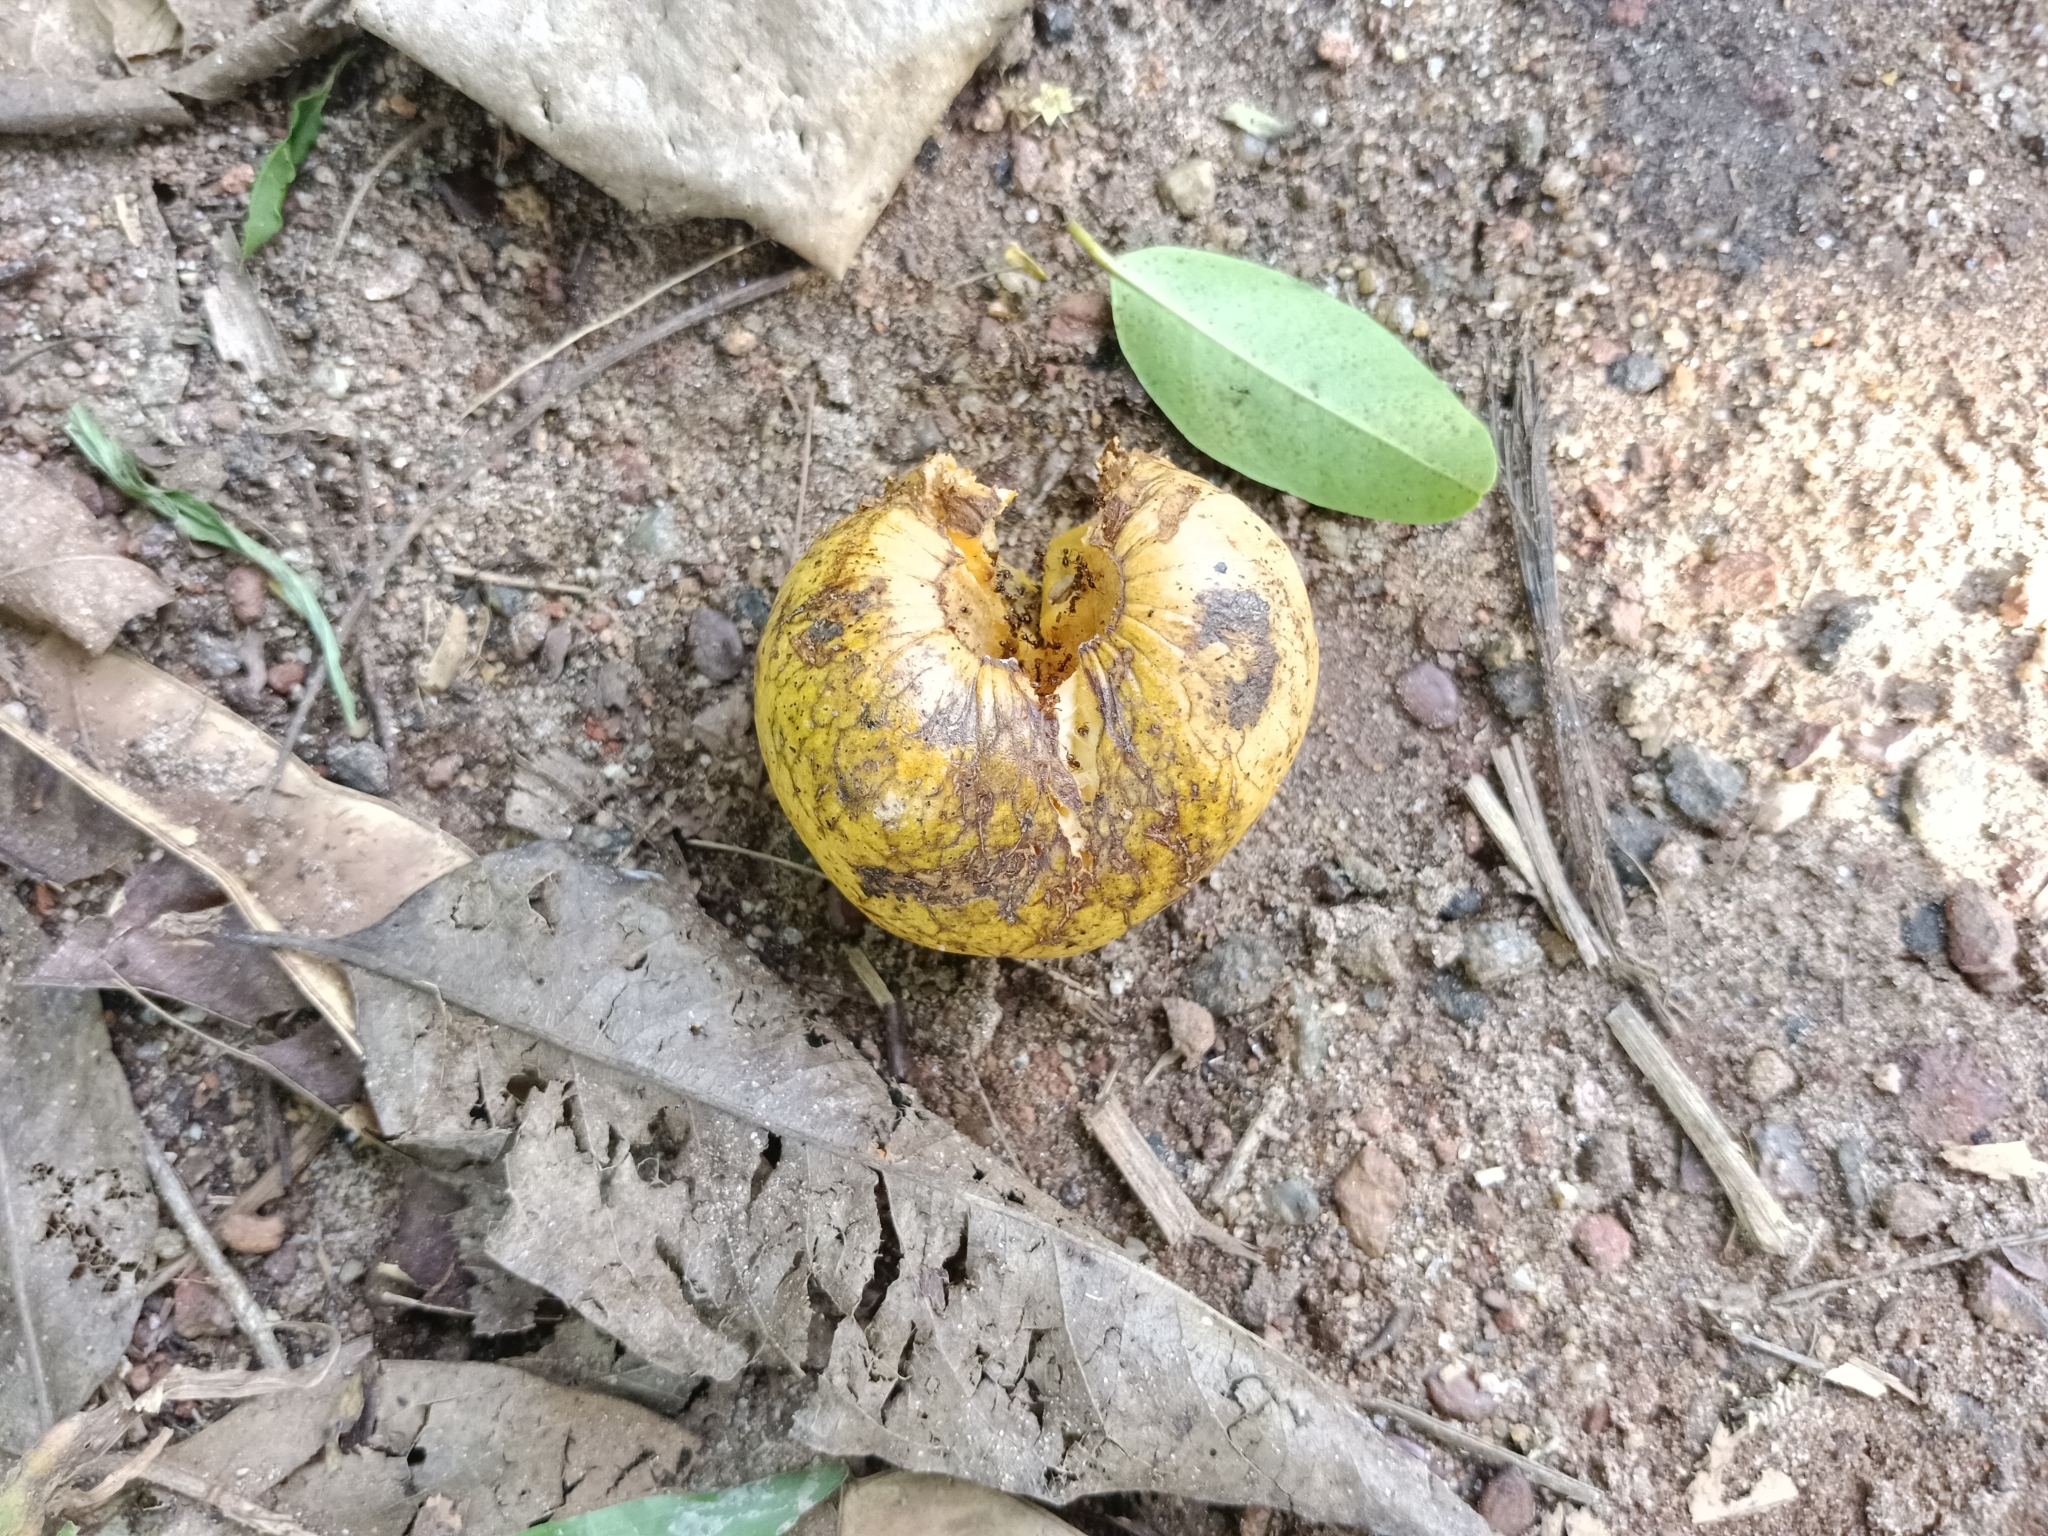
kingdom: Plantae
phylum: Tracheophyta
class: Magnoliopsida
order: Magnoliales
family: Annonaceae
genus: Annona
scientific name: Annona glabra
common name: Monkey apple
